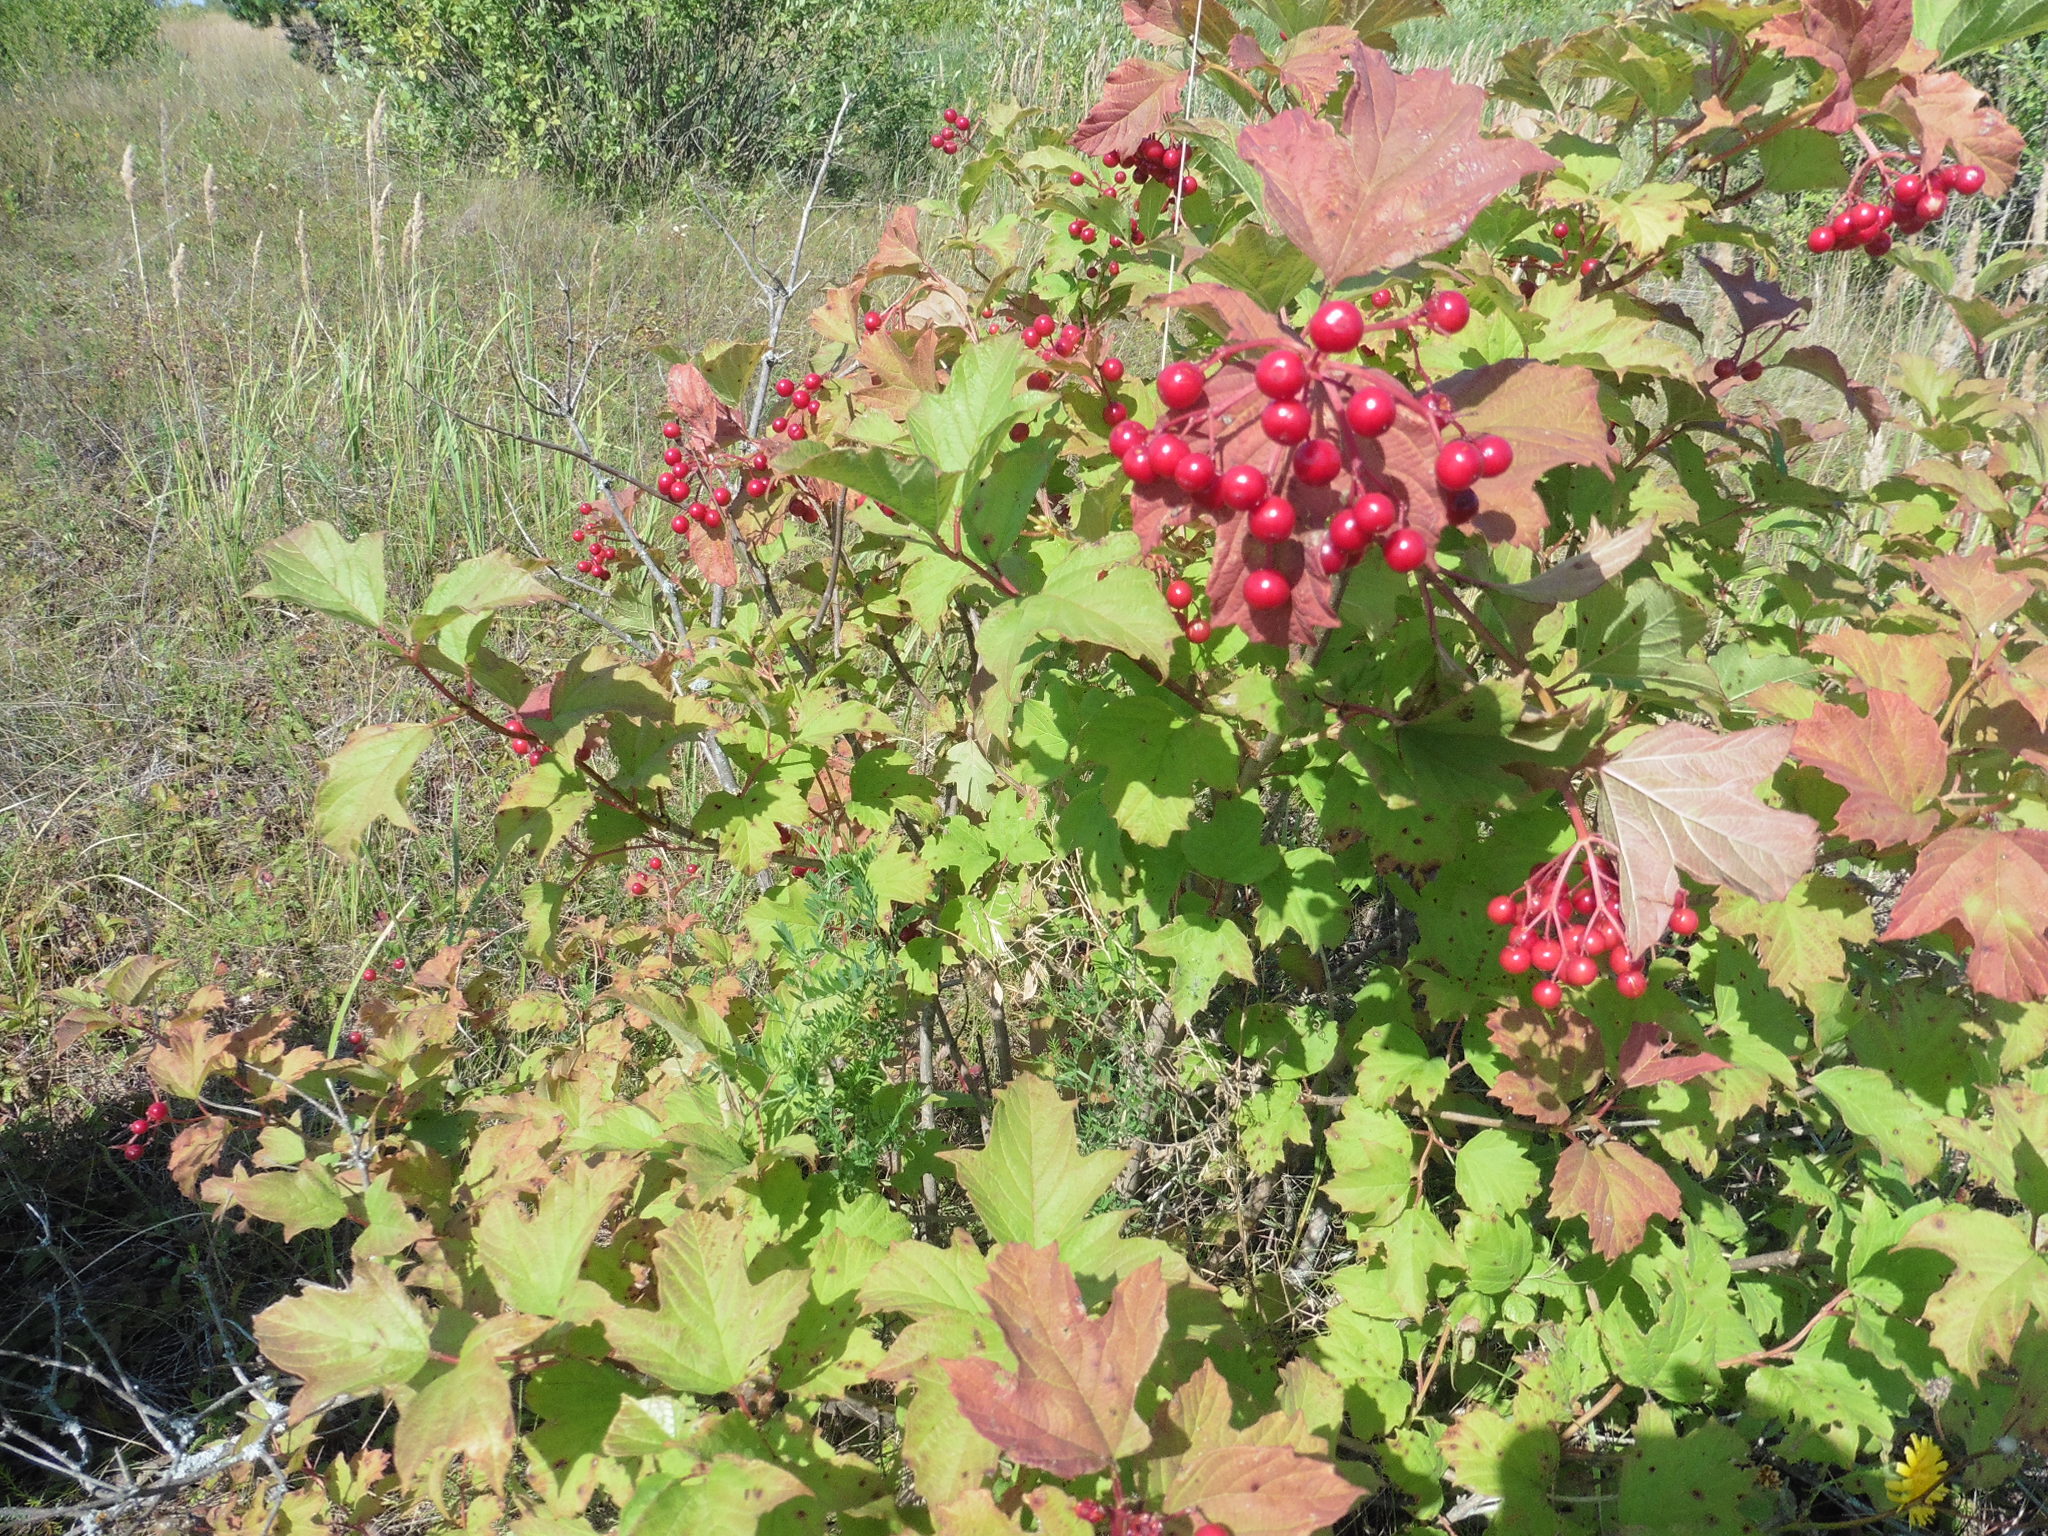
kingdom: Plantae
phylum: Tracheophyta
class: Magnoliopsida
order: Dipsacales
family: Viburnaceae
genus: Viburnum
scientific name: Viburnum opulus
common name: Guelder-rose
